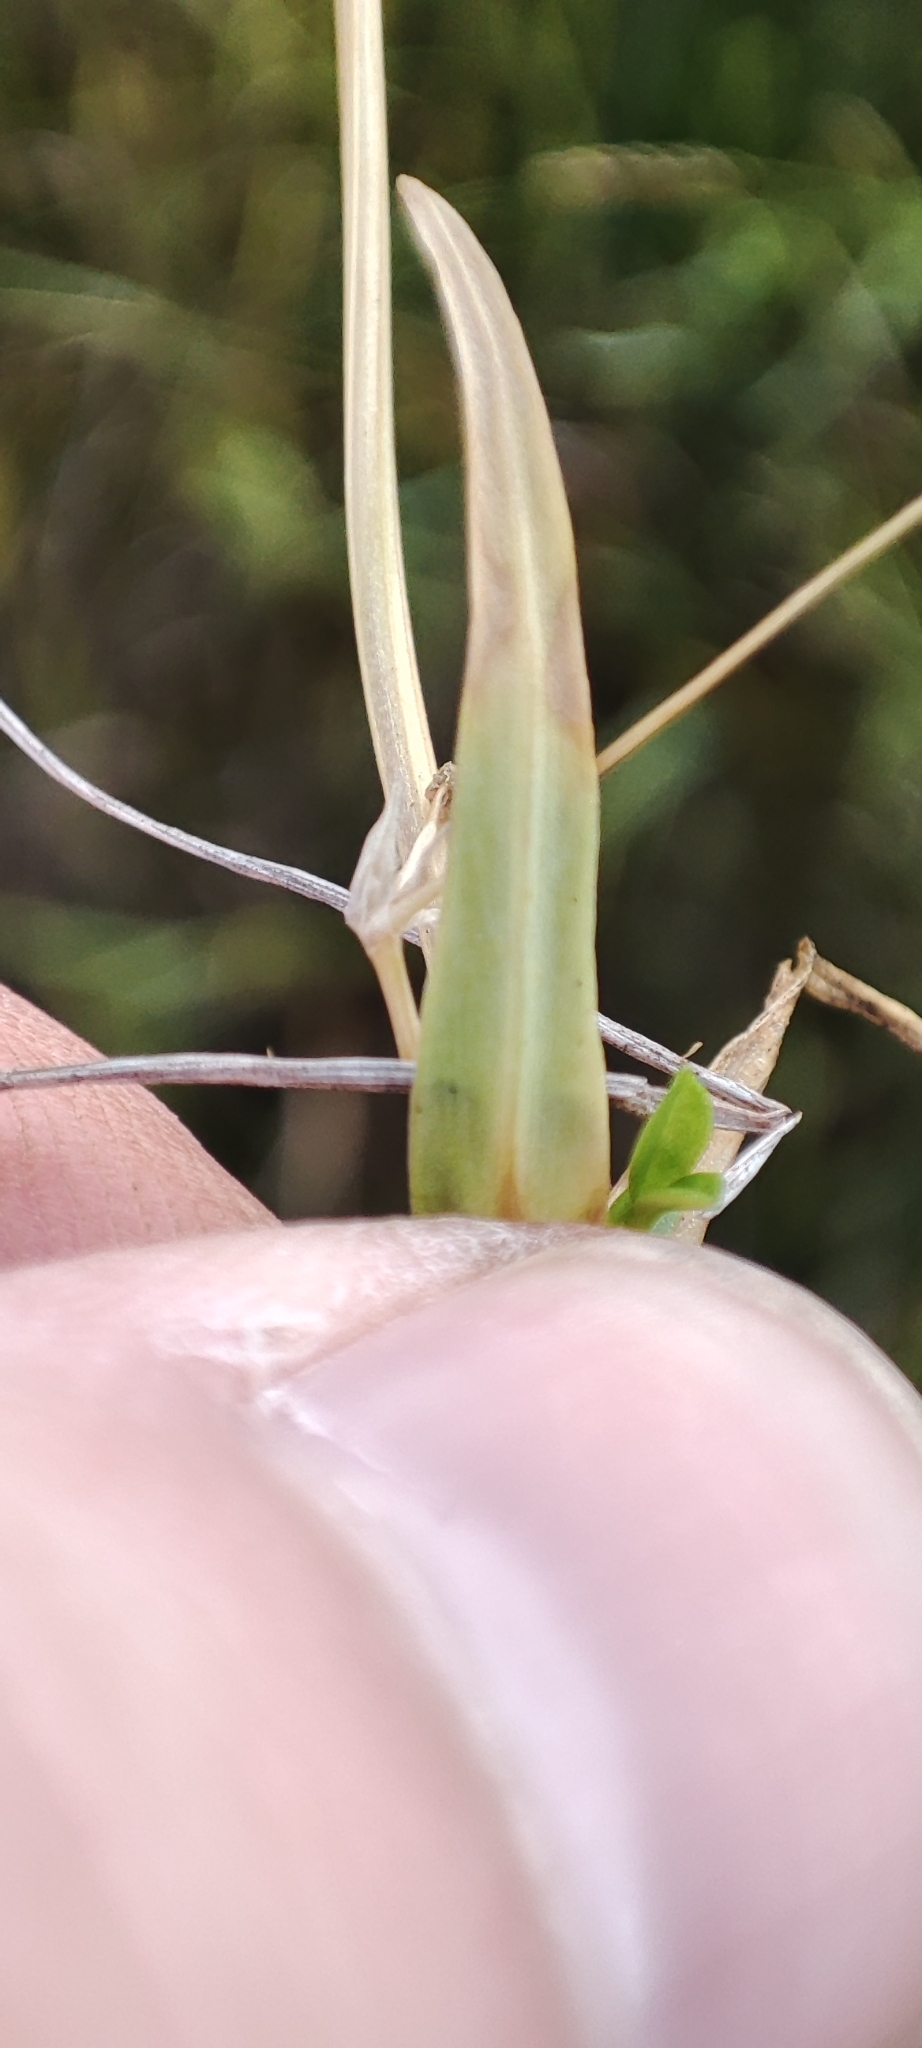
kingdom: Plantae
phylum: Tracheophyta
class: Magnoliopsida
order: Caryophyllales
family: Caryophyllaceae
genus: Stellaria
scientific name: Stellaria graminea
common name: Grass-like starwort
